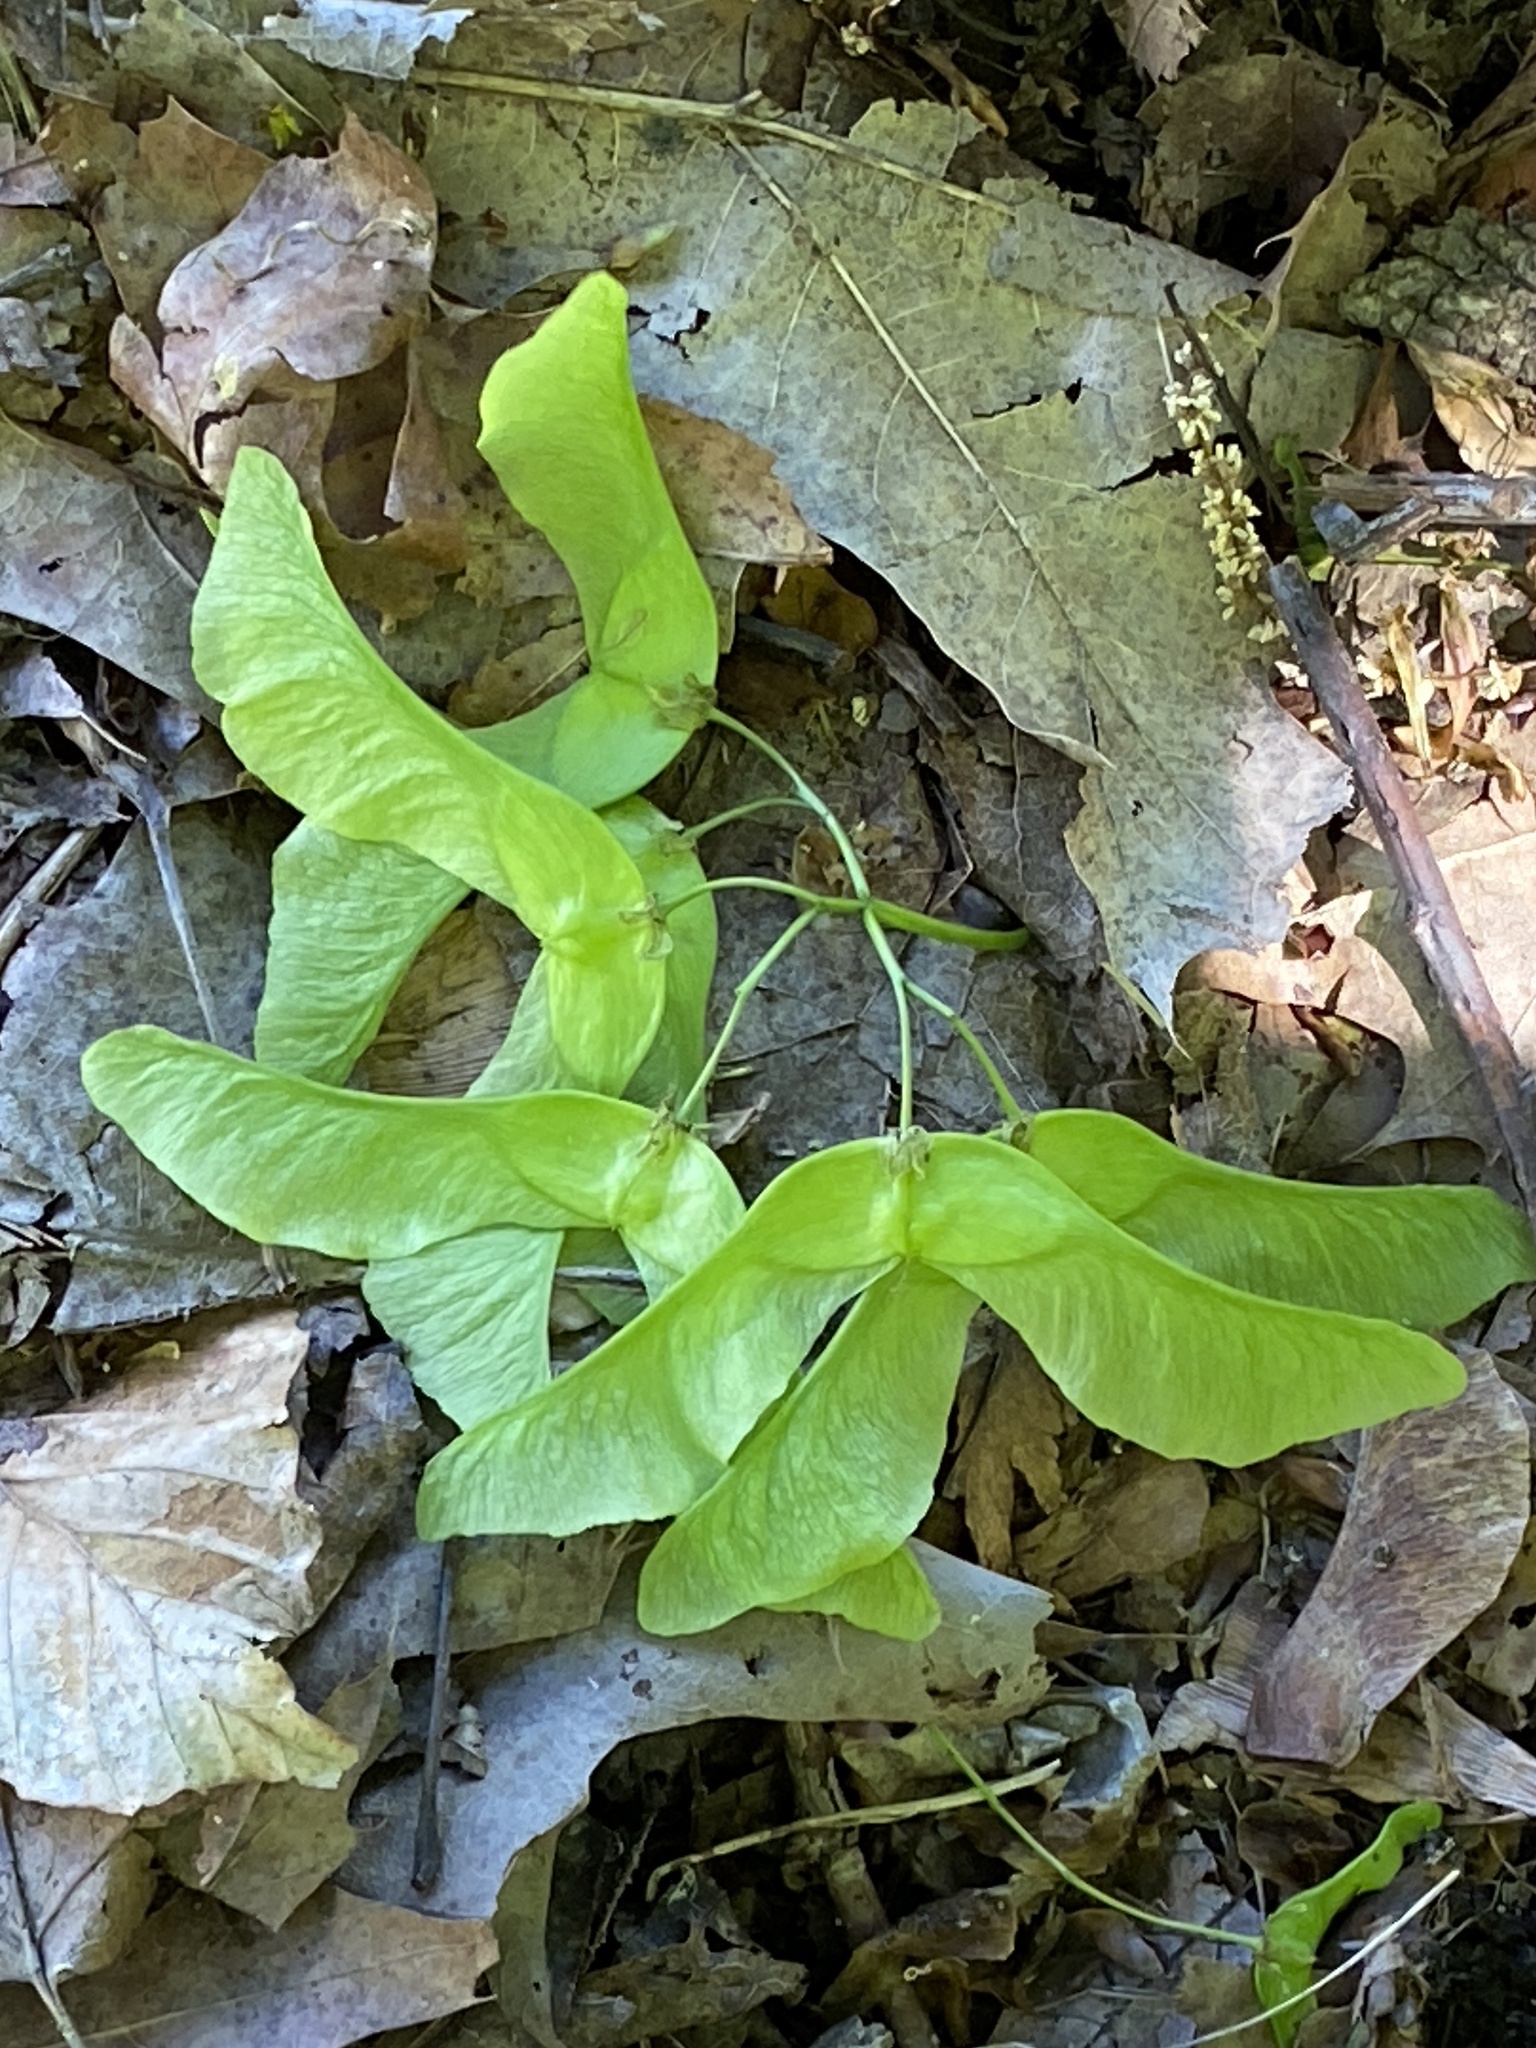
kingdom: Plantae
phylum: Tracheophyta
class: Magnoliopsida
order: Sapindales
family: Sapindaceae
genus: Acer
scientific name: Acer platanoides
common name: Norway maple
